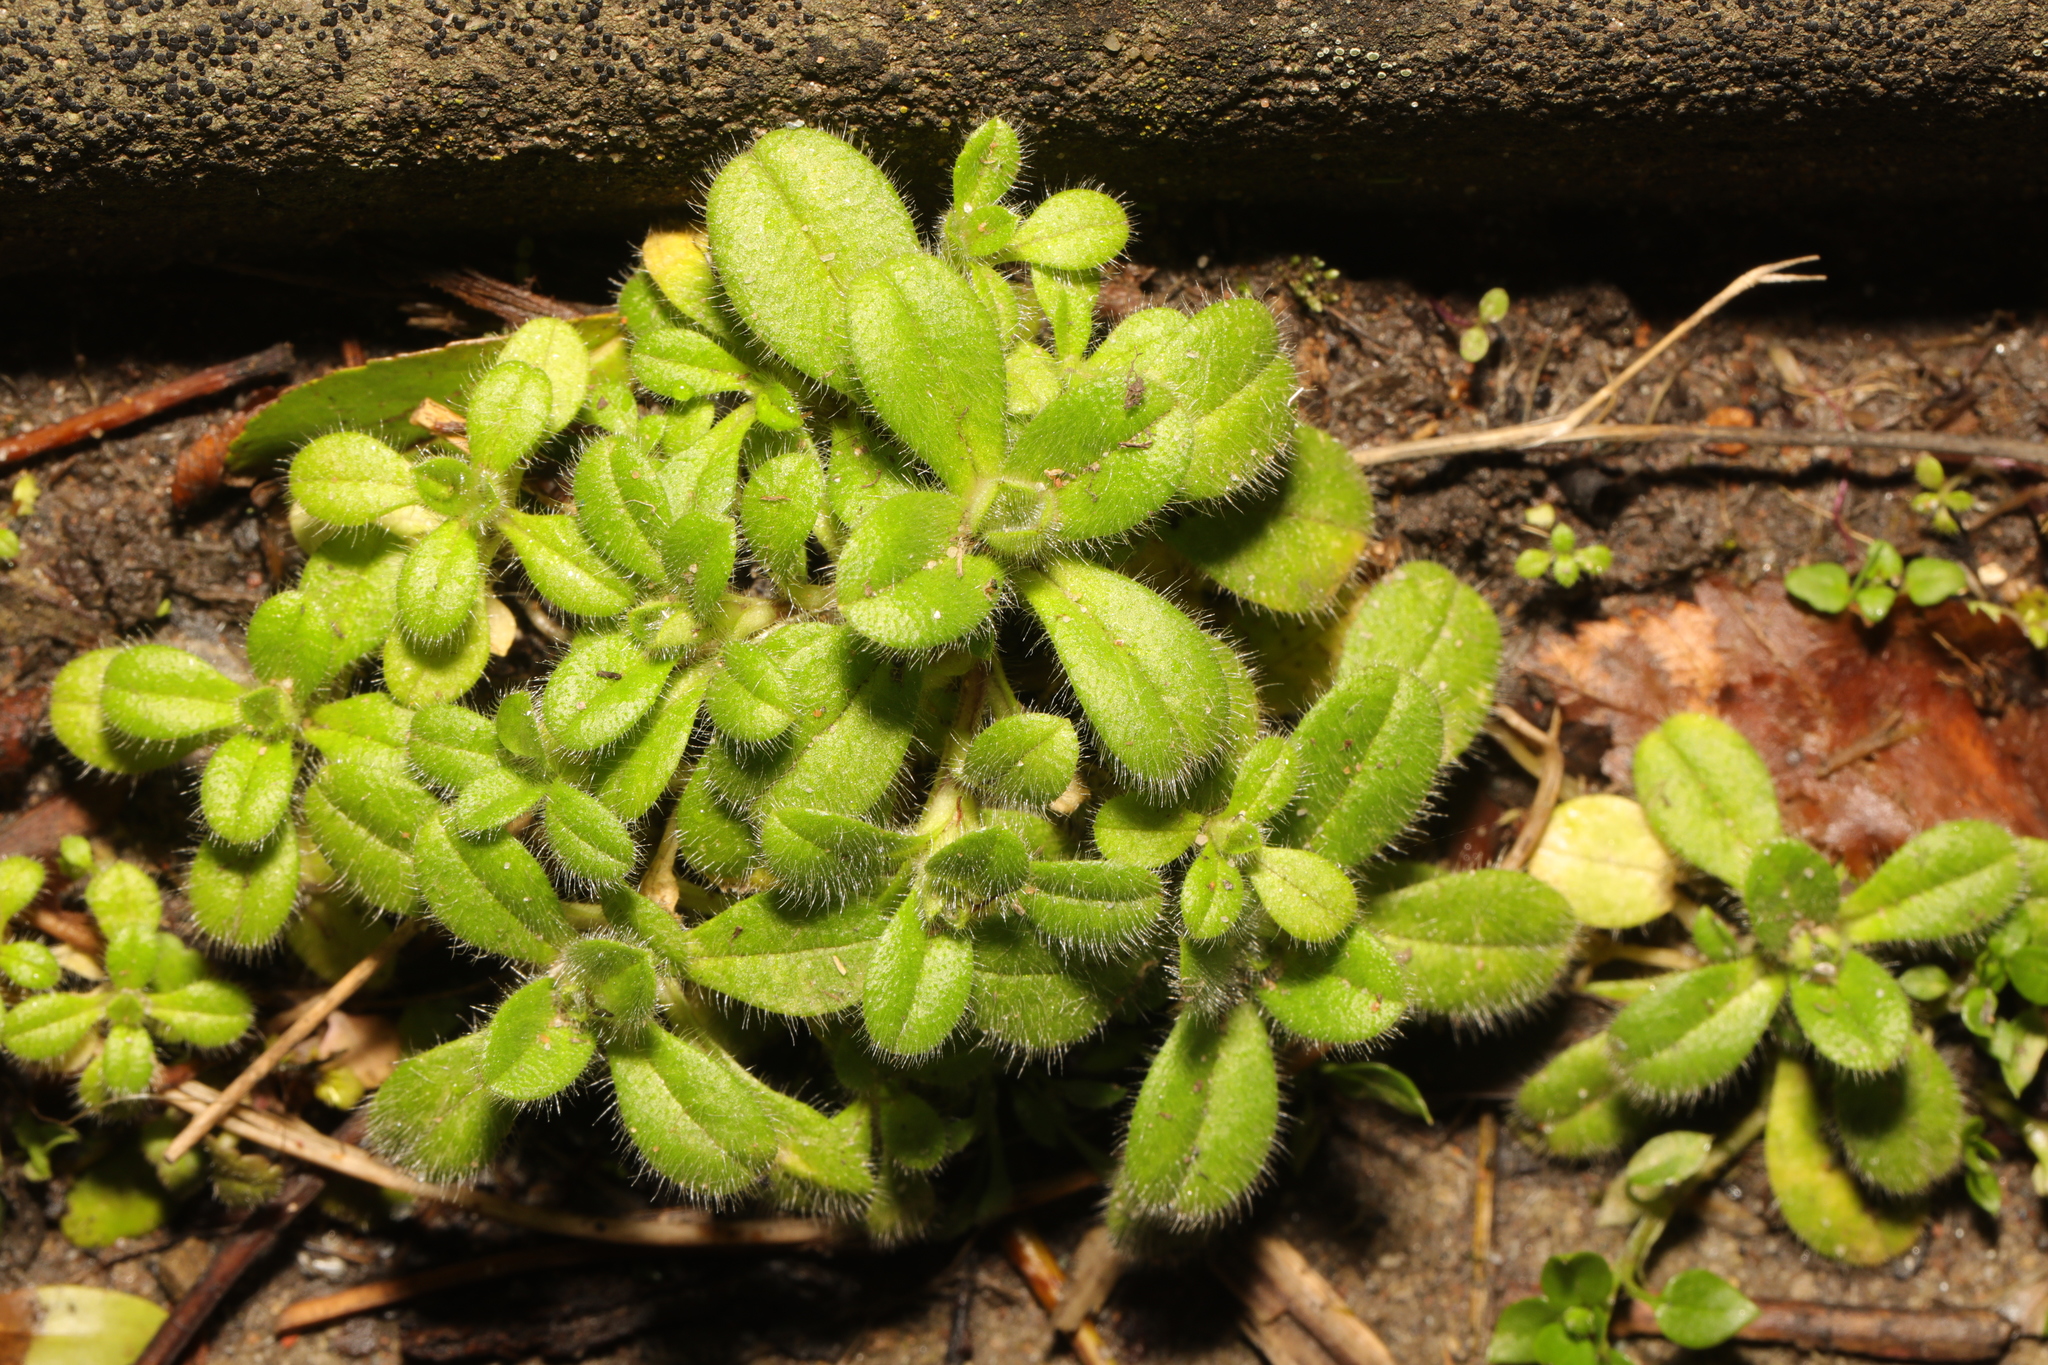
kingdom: Plantae
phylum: Tracheophyta
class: Magnoliopsida
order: Caryophyllales
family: Caryophyllaceae
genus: Cerastium
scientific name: Cerastium fontanum
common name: Common mouse-ear
